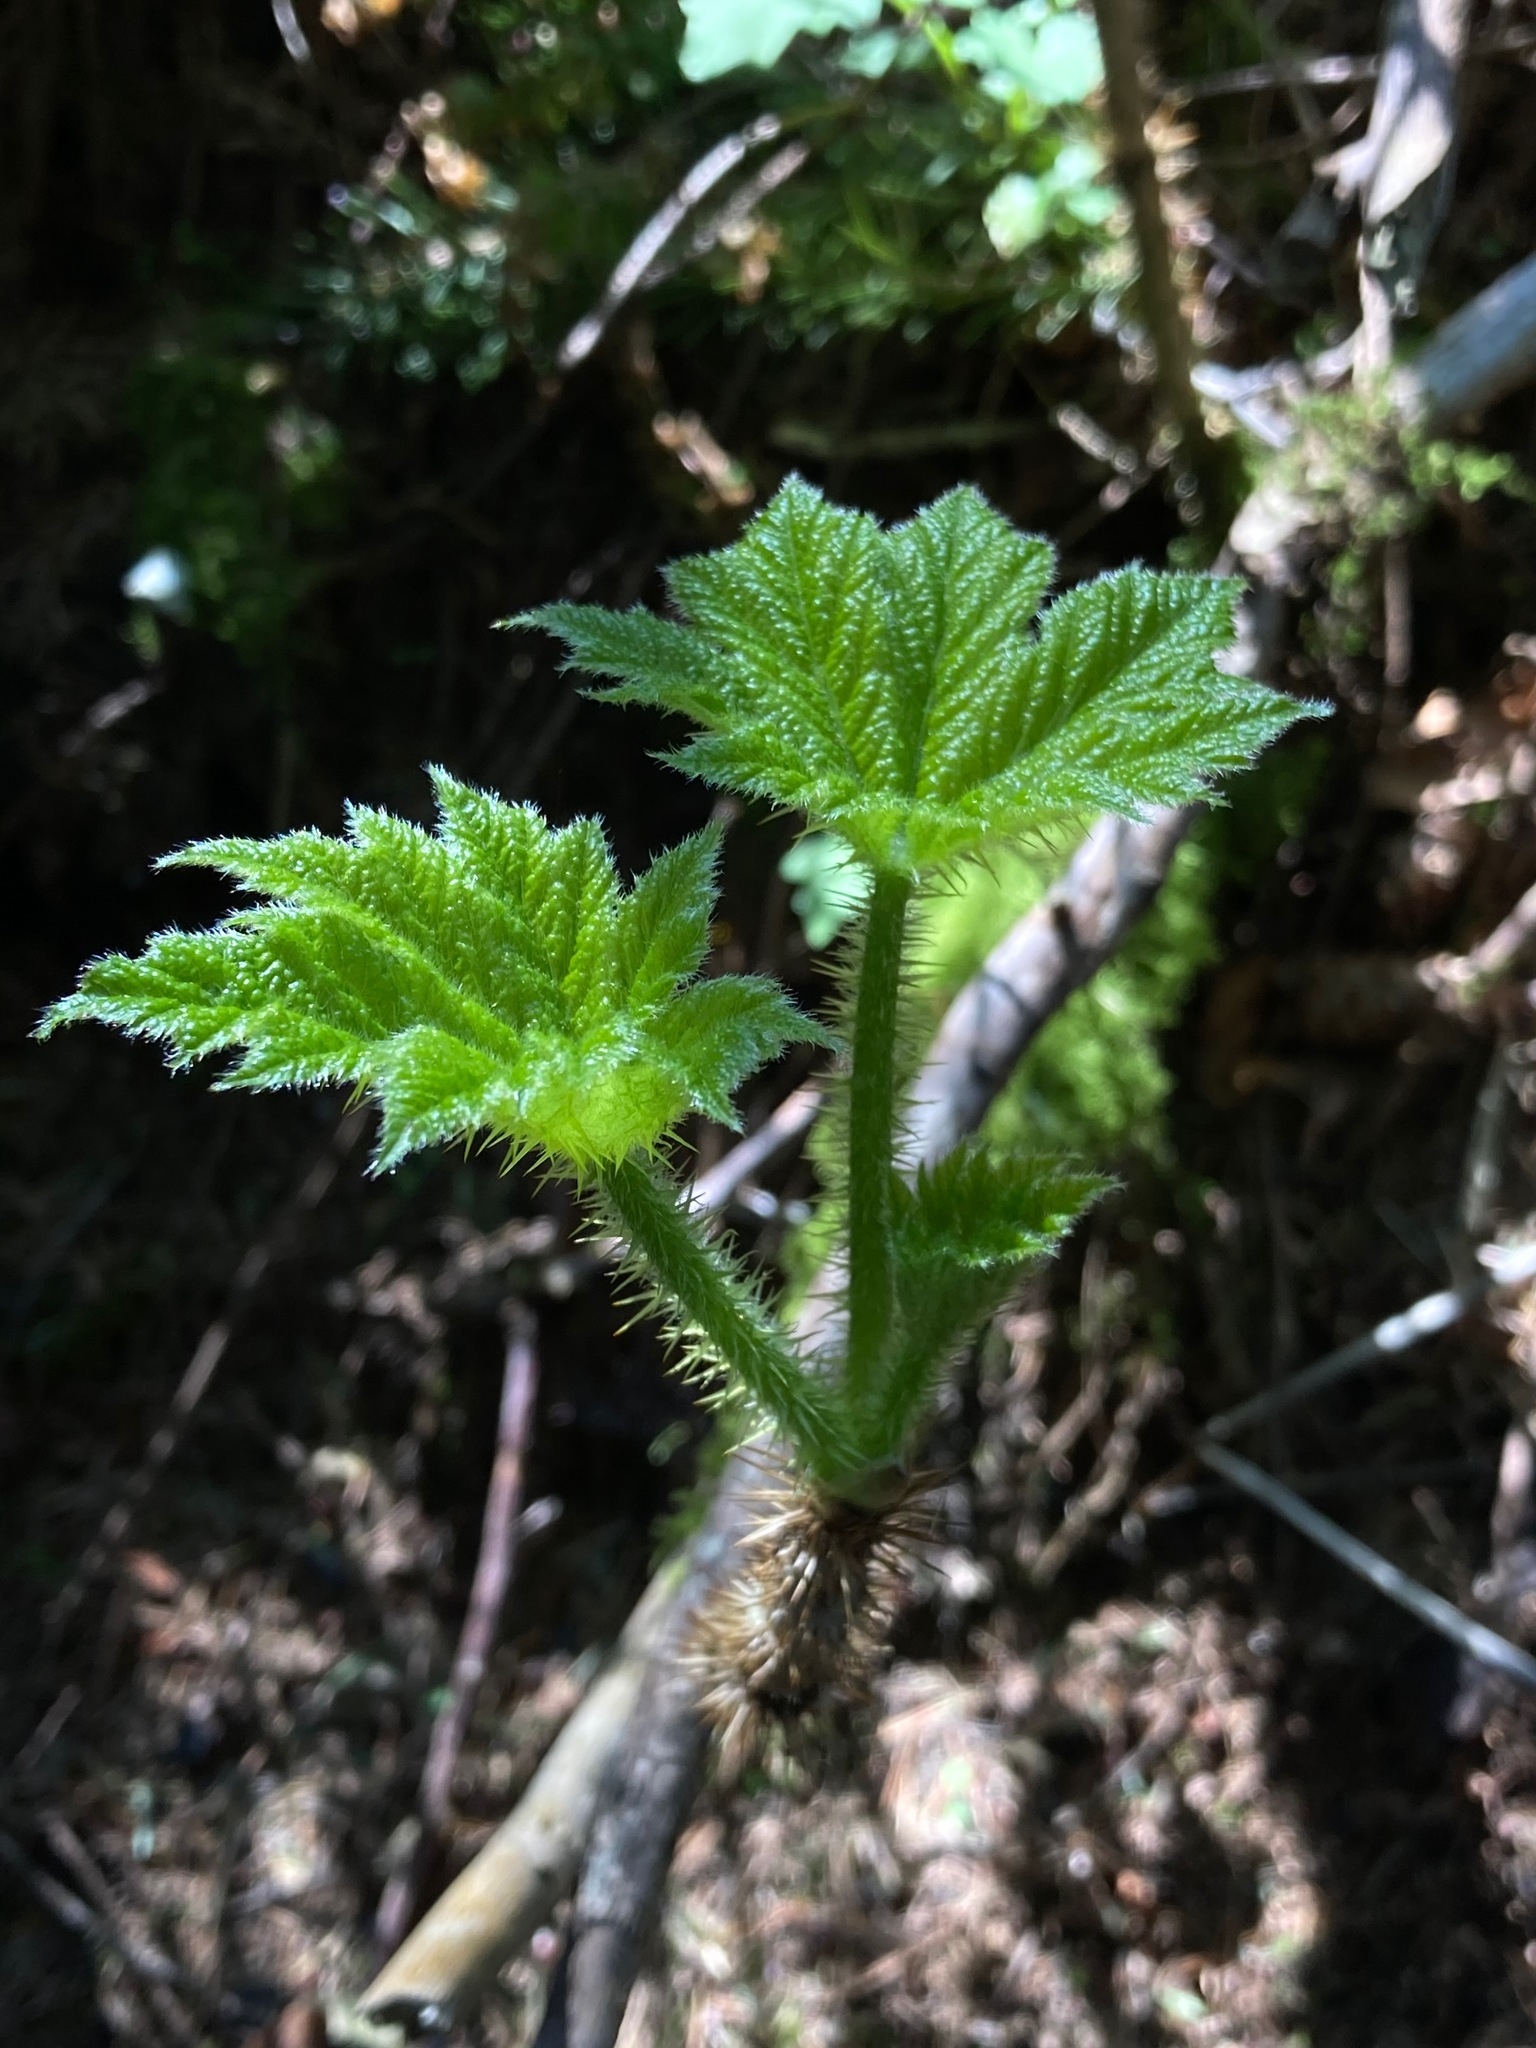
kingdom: Plantae
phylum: Tracheophyta
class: Magnoliopsida
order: Apiales
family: Araliaceae
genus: Oplopanax
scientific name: Oplopanax horridus
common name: Devil's walking-stick
